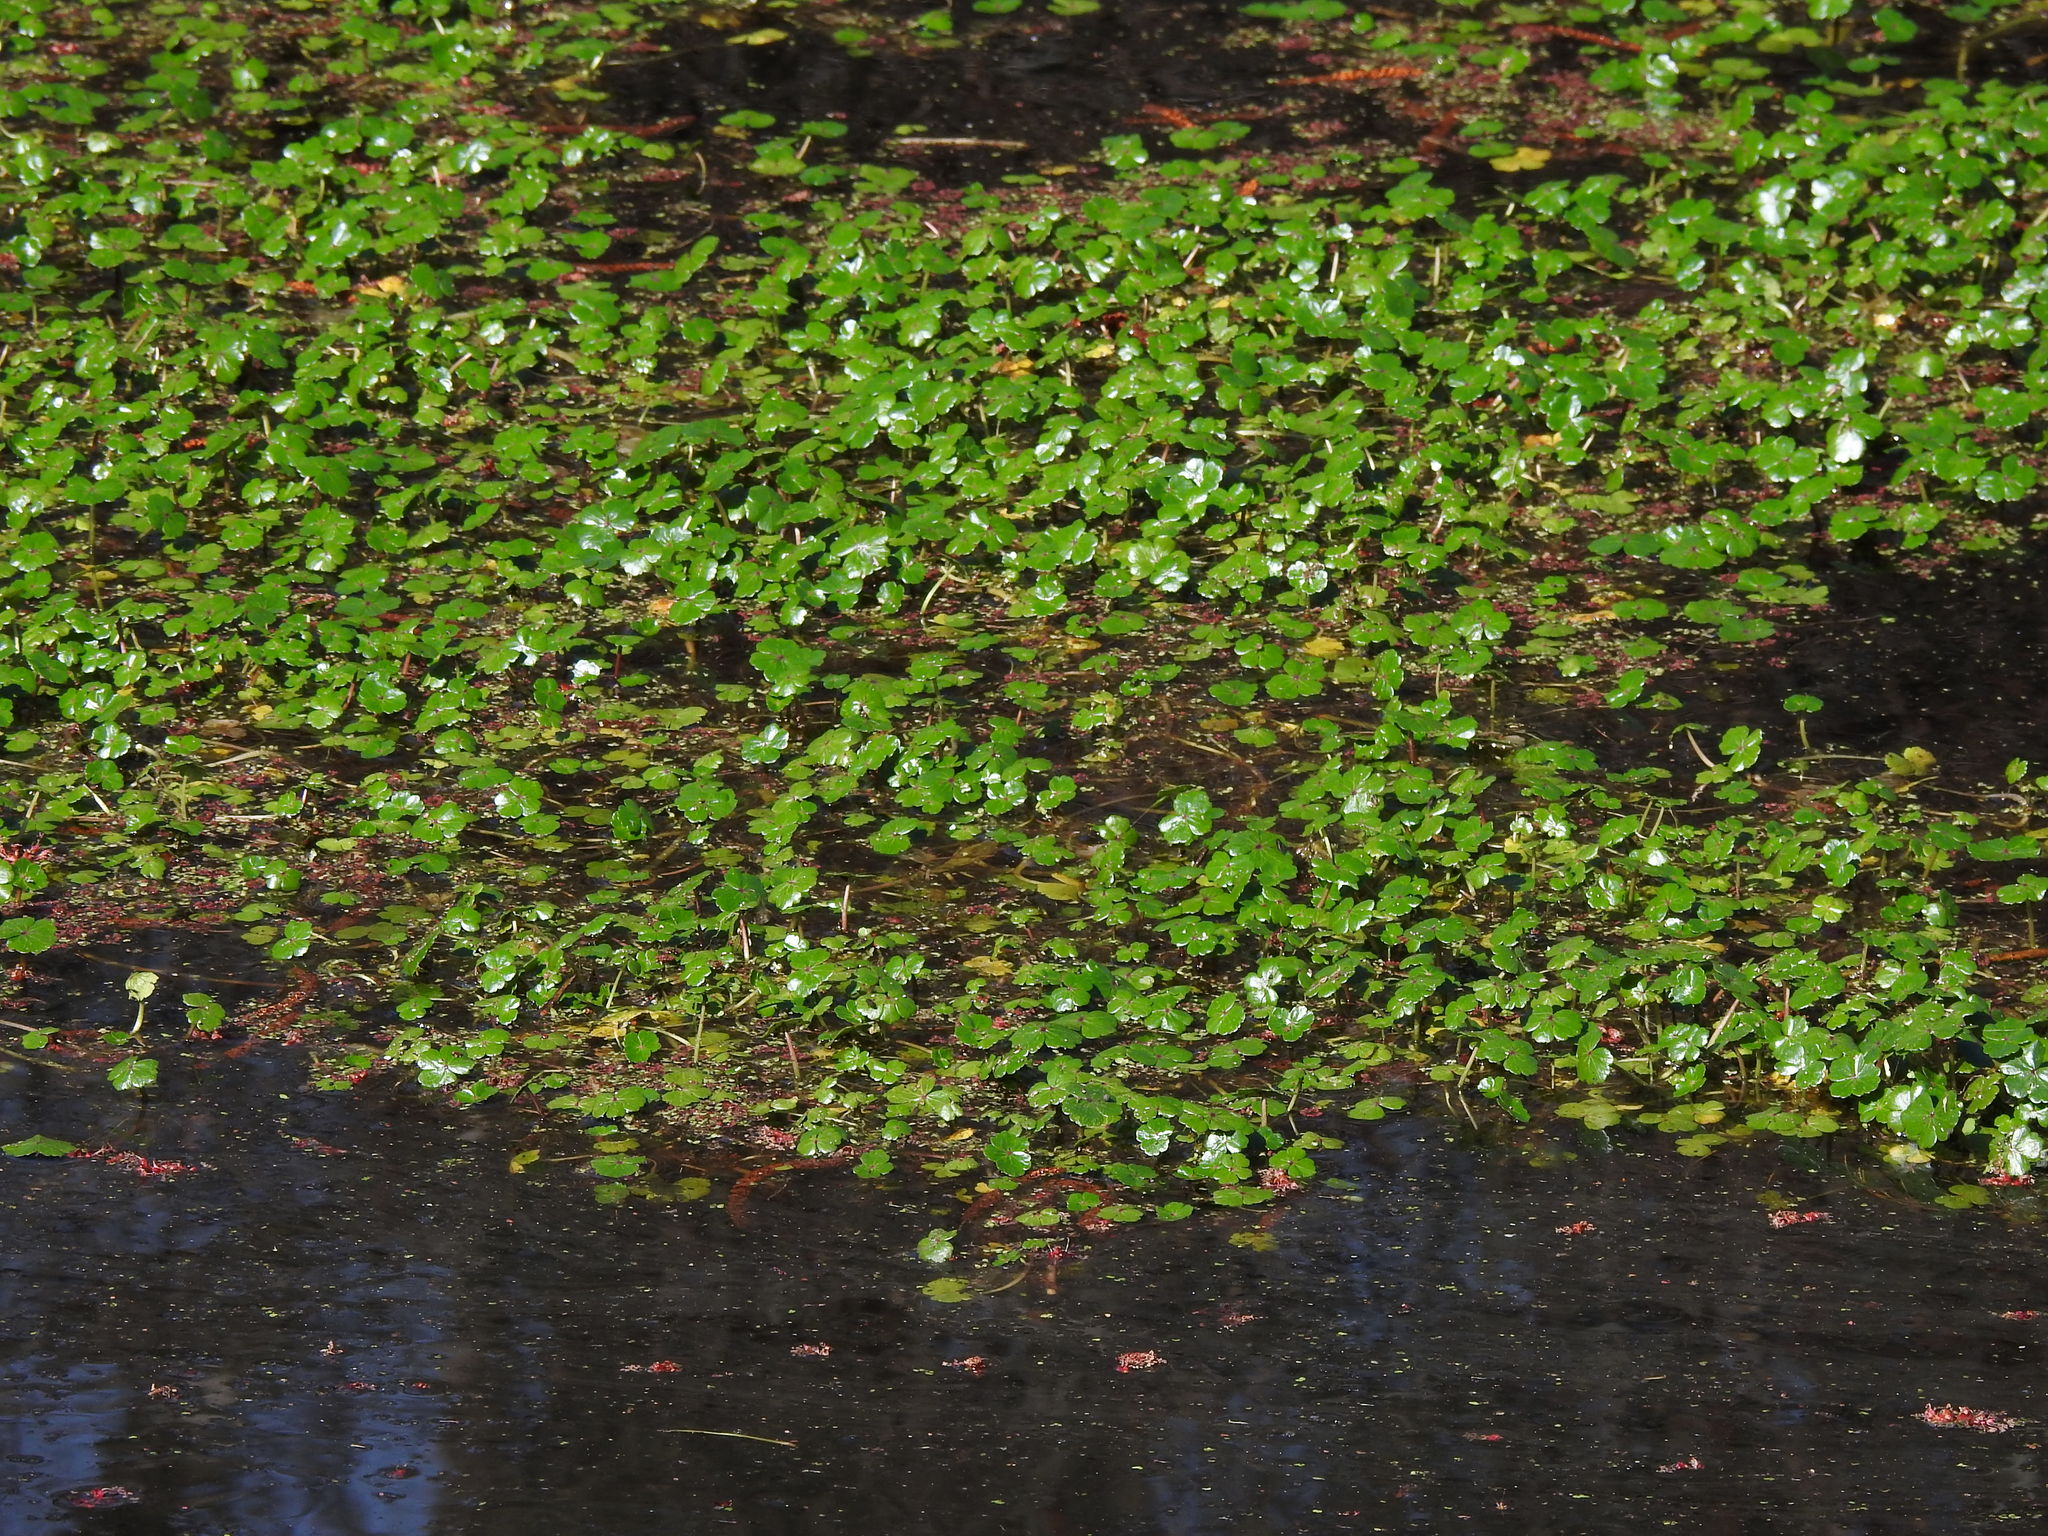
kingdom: Plantae
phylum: Tracheophyta
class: Magnoliopsida
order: Apiales
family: Araliaceae
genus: Hydrocotyle
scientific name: Hydrocotyle ranunculoides
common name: Floating pennywort
